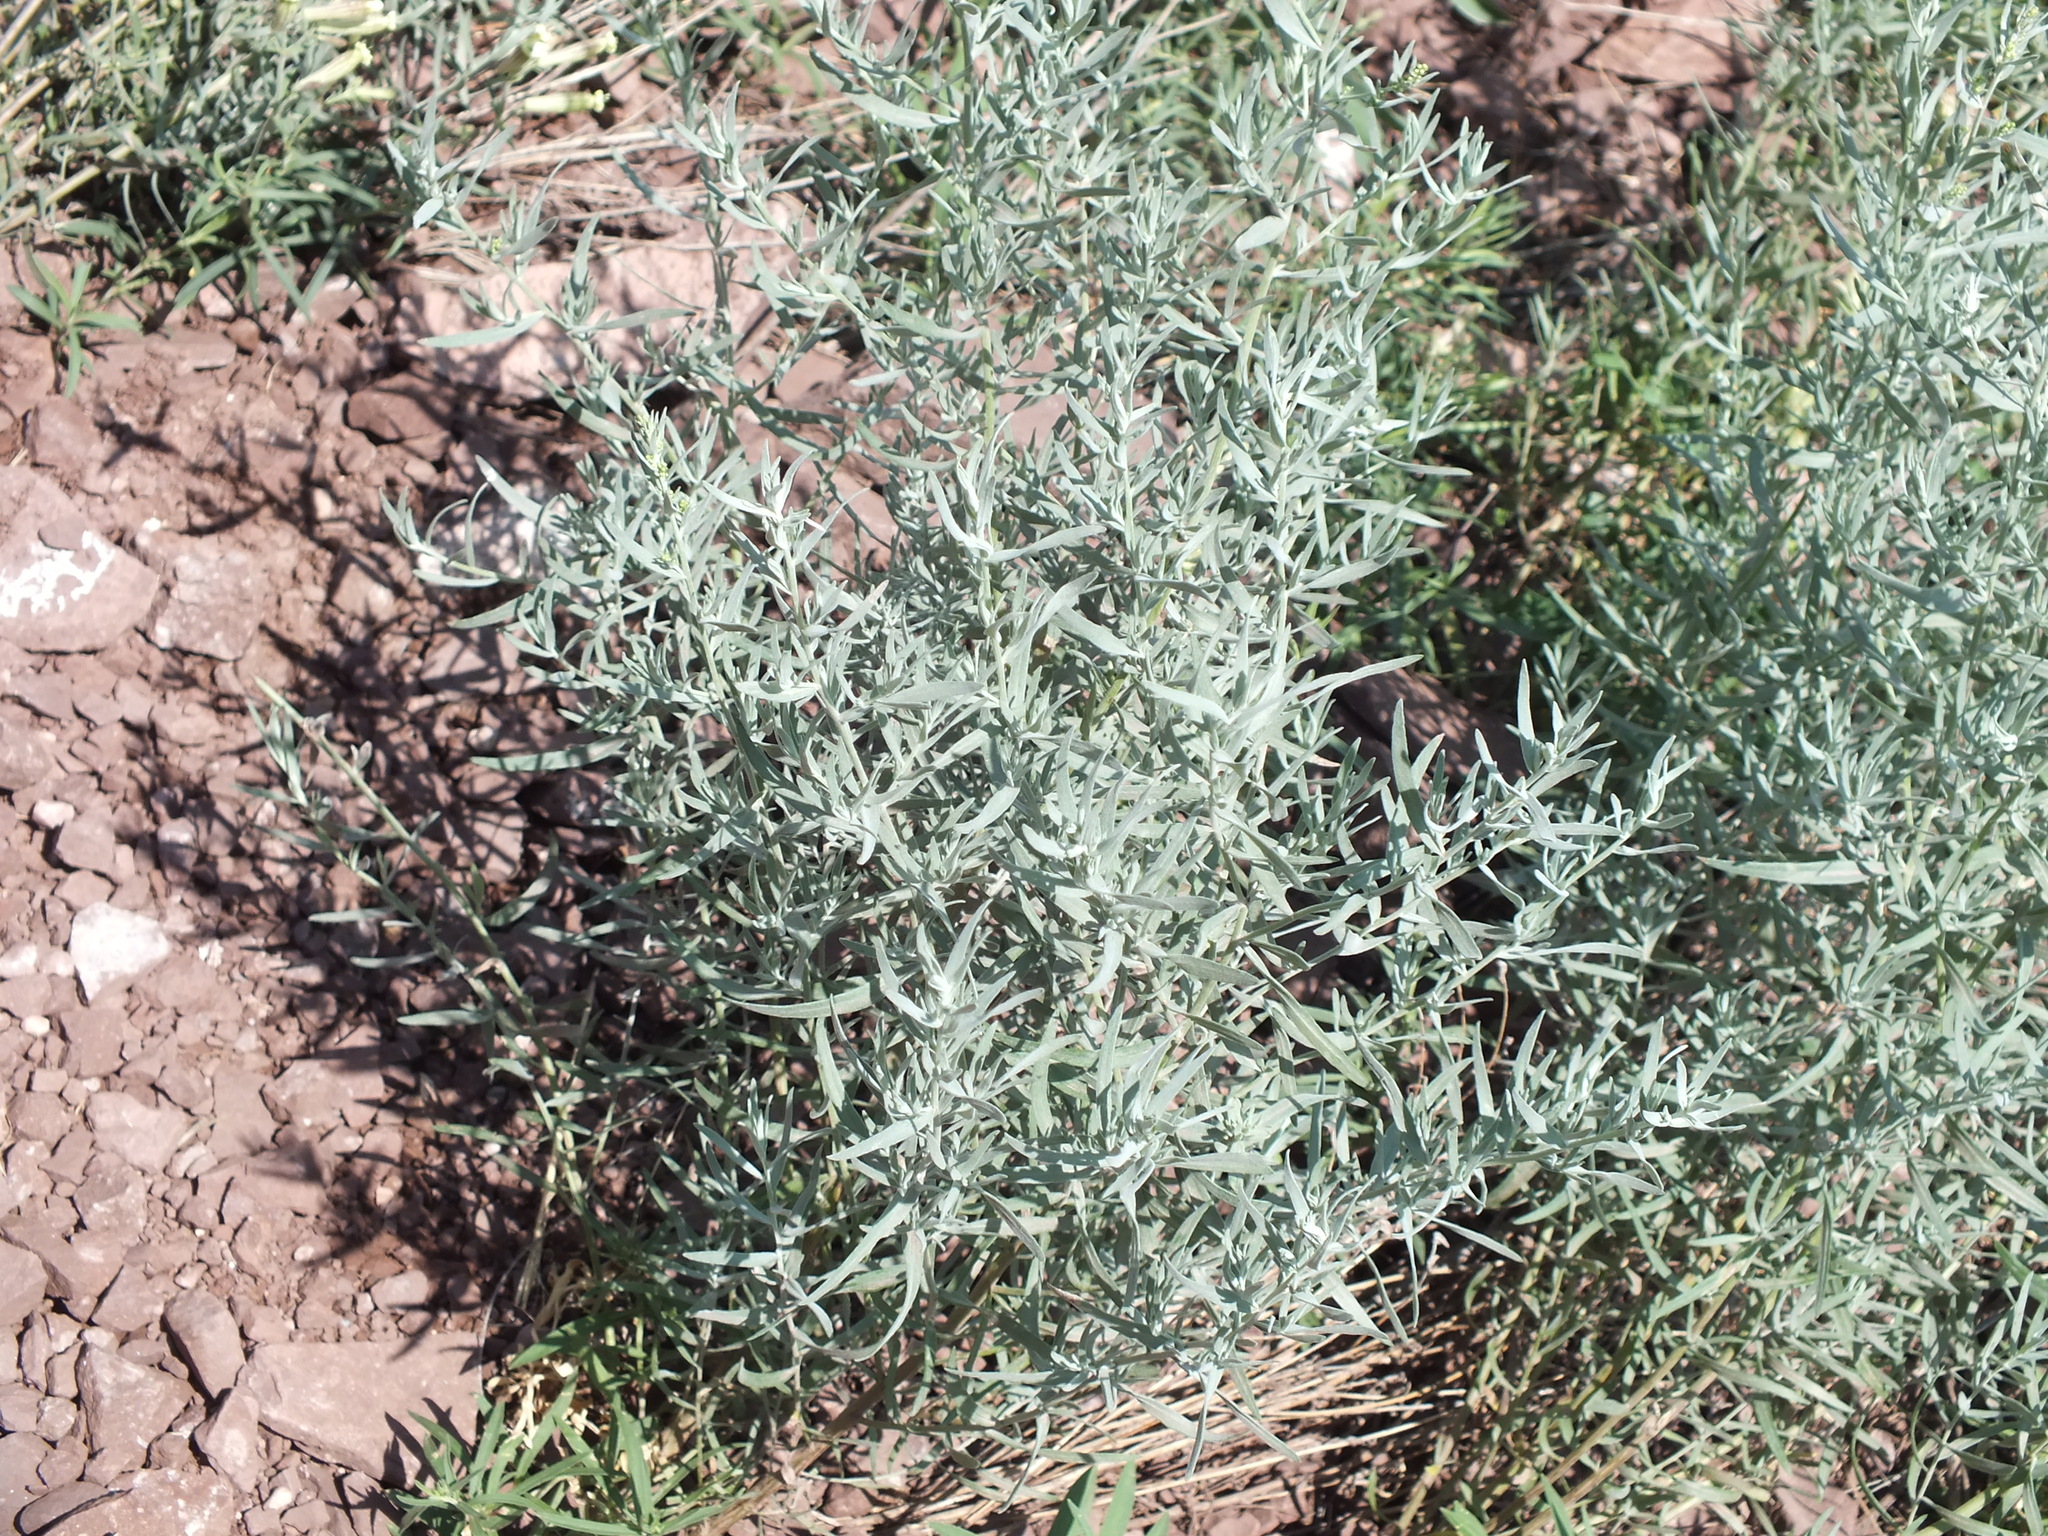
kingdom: Plantae
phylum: Tracheophyta
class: Magnoliopsida
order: Asterales
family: Asteraceae
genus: Artemisia
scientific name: Artemisia glauca
